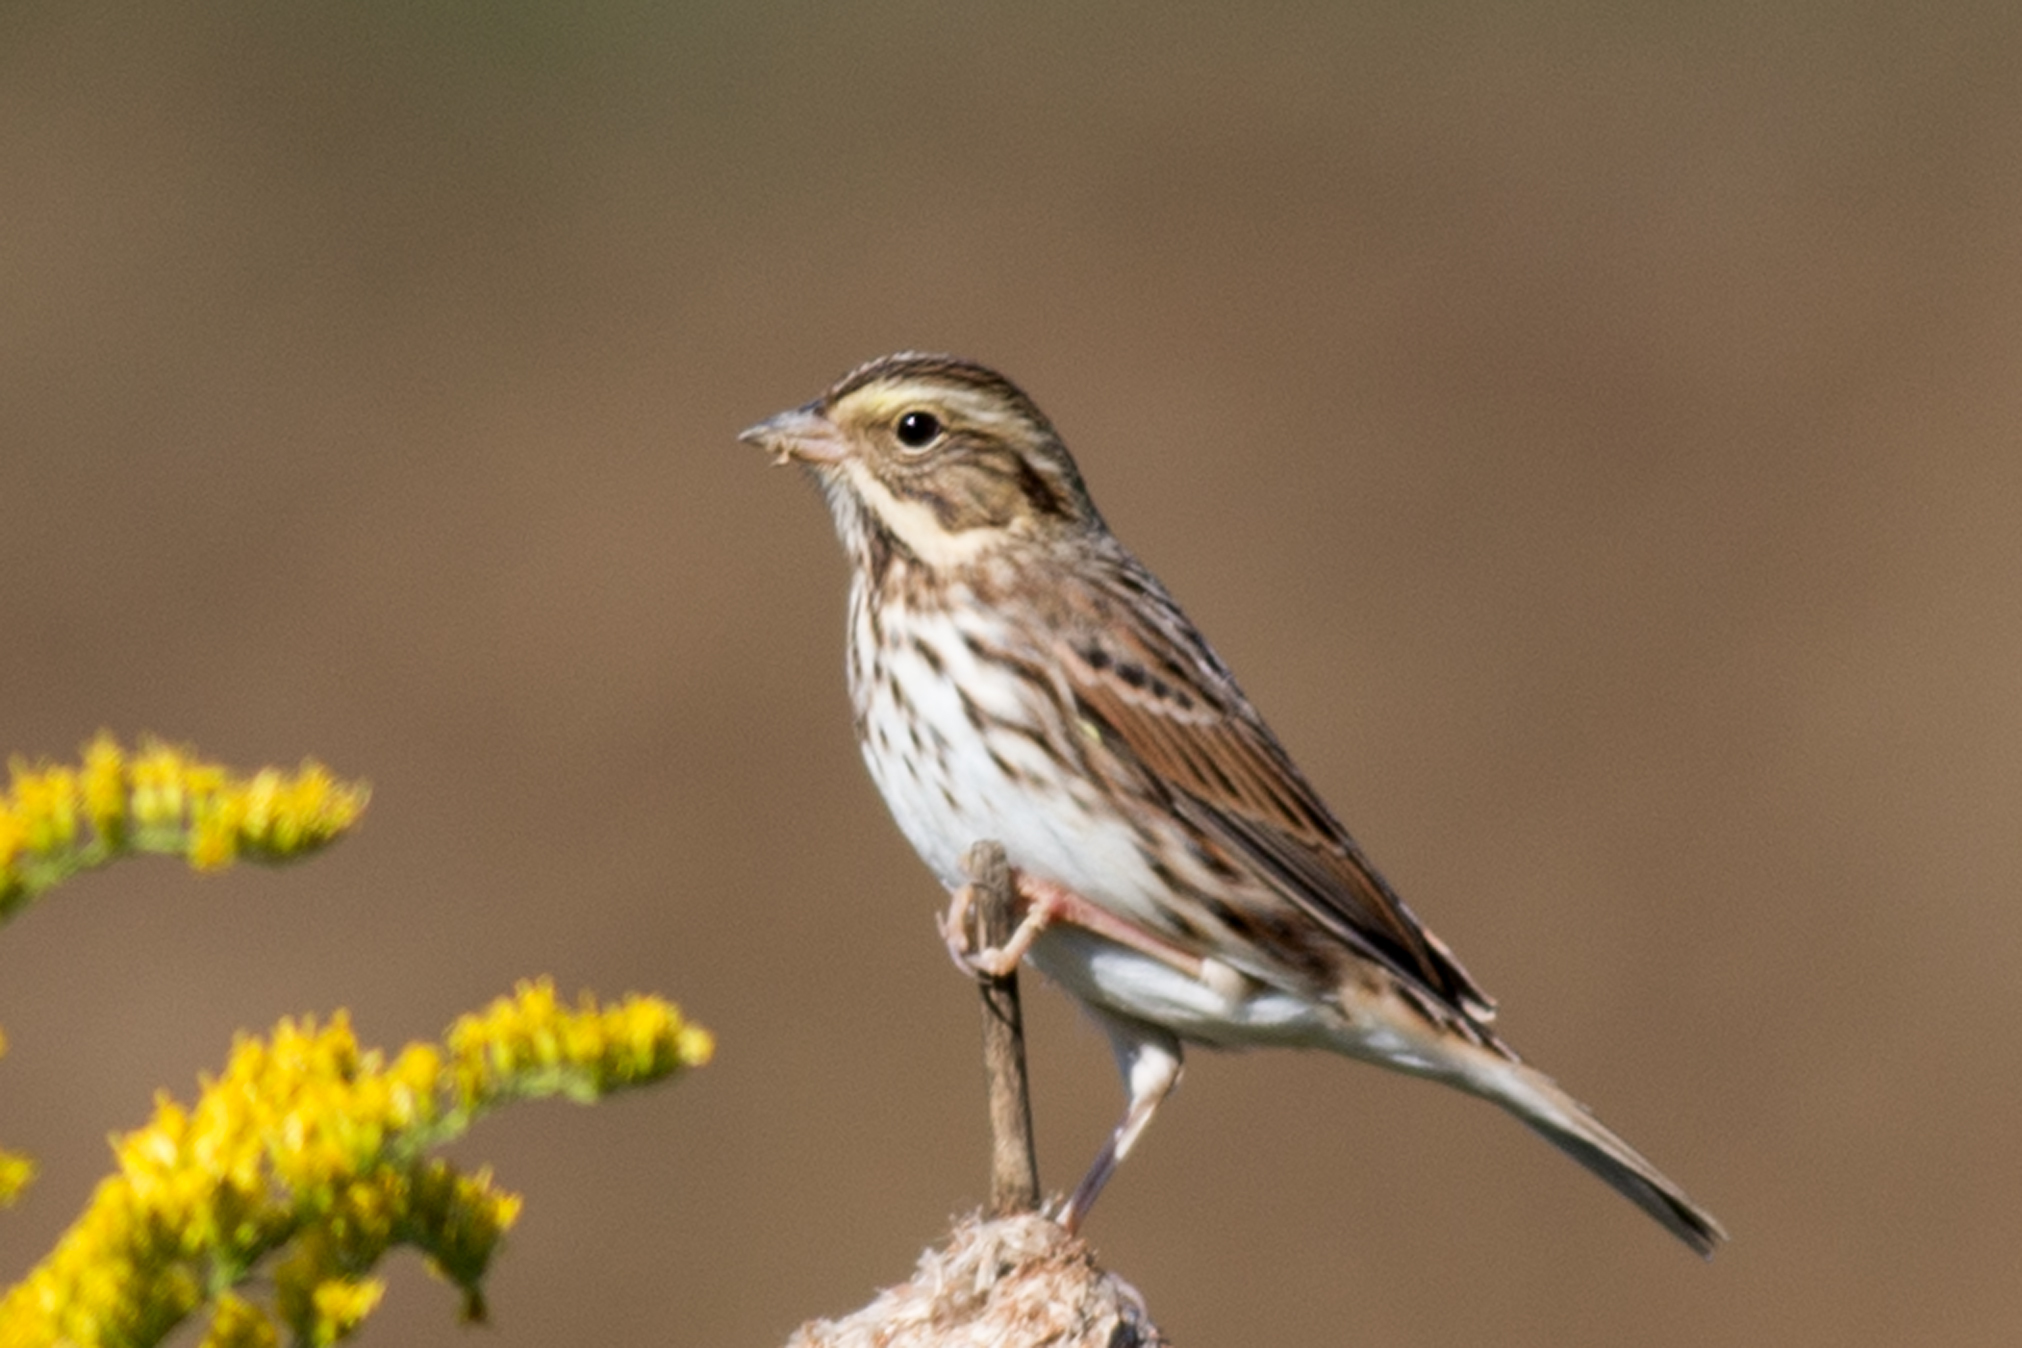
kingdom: Animalia
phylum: Chordata
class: Aves
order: Passeriformes
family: Passerellidae
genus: Passerculus
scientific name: Passerculus sandwichensis
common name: Savannah sparrow
